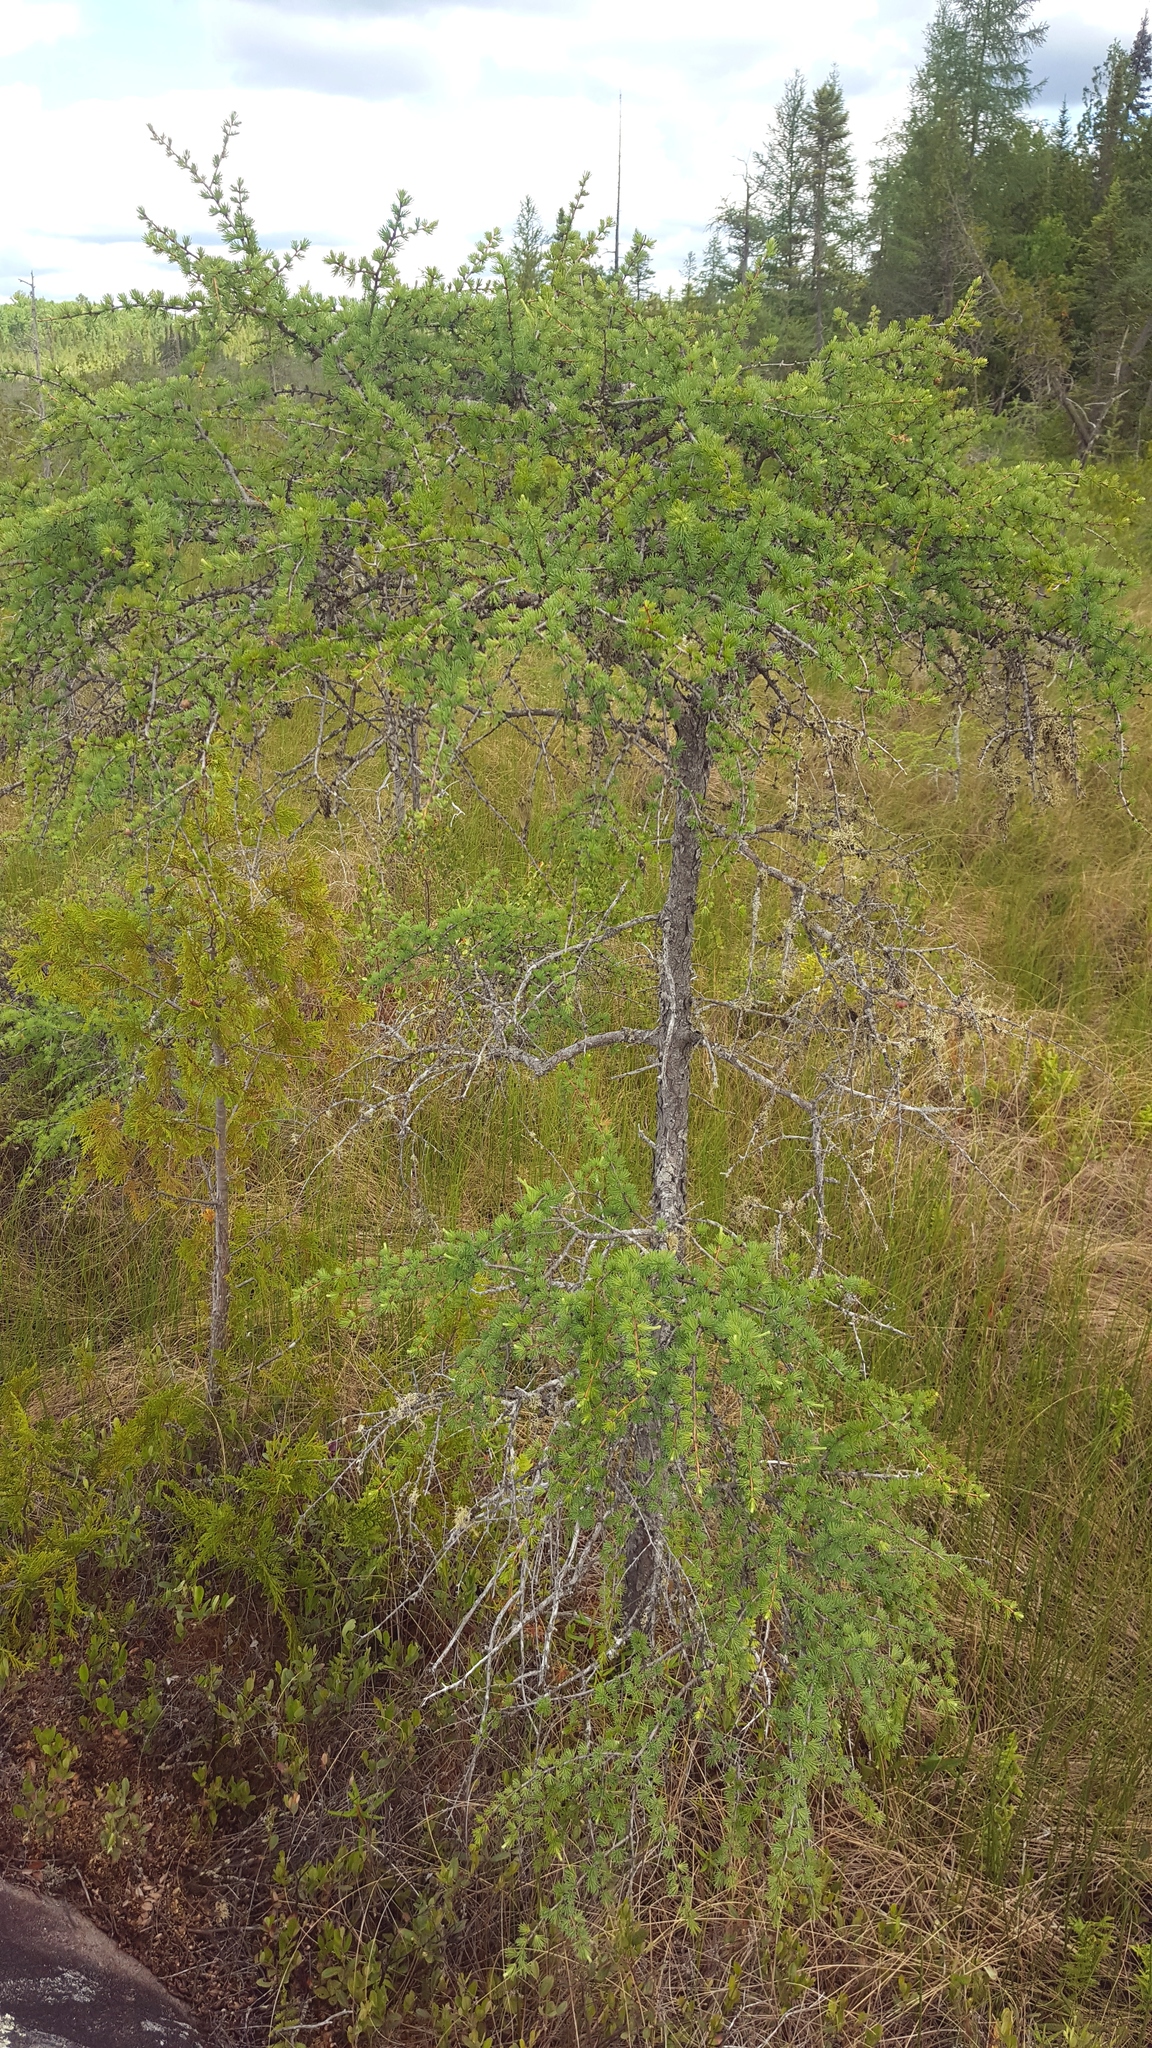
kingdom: Plantae
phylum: Tracheophyta
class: Pinopsida
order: Pinales
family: Pinaceae
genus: Larix
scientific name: Larix laricina
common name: American larch
